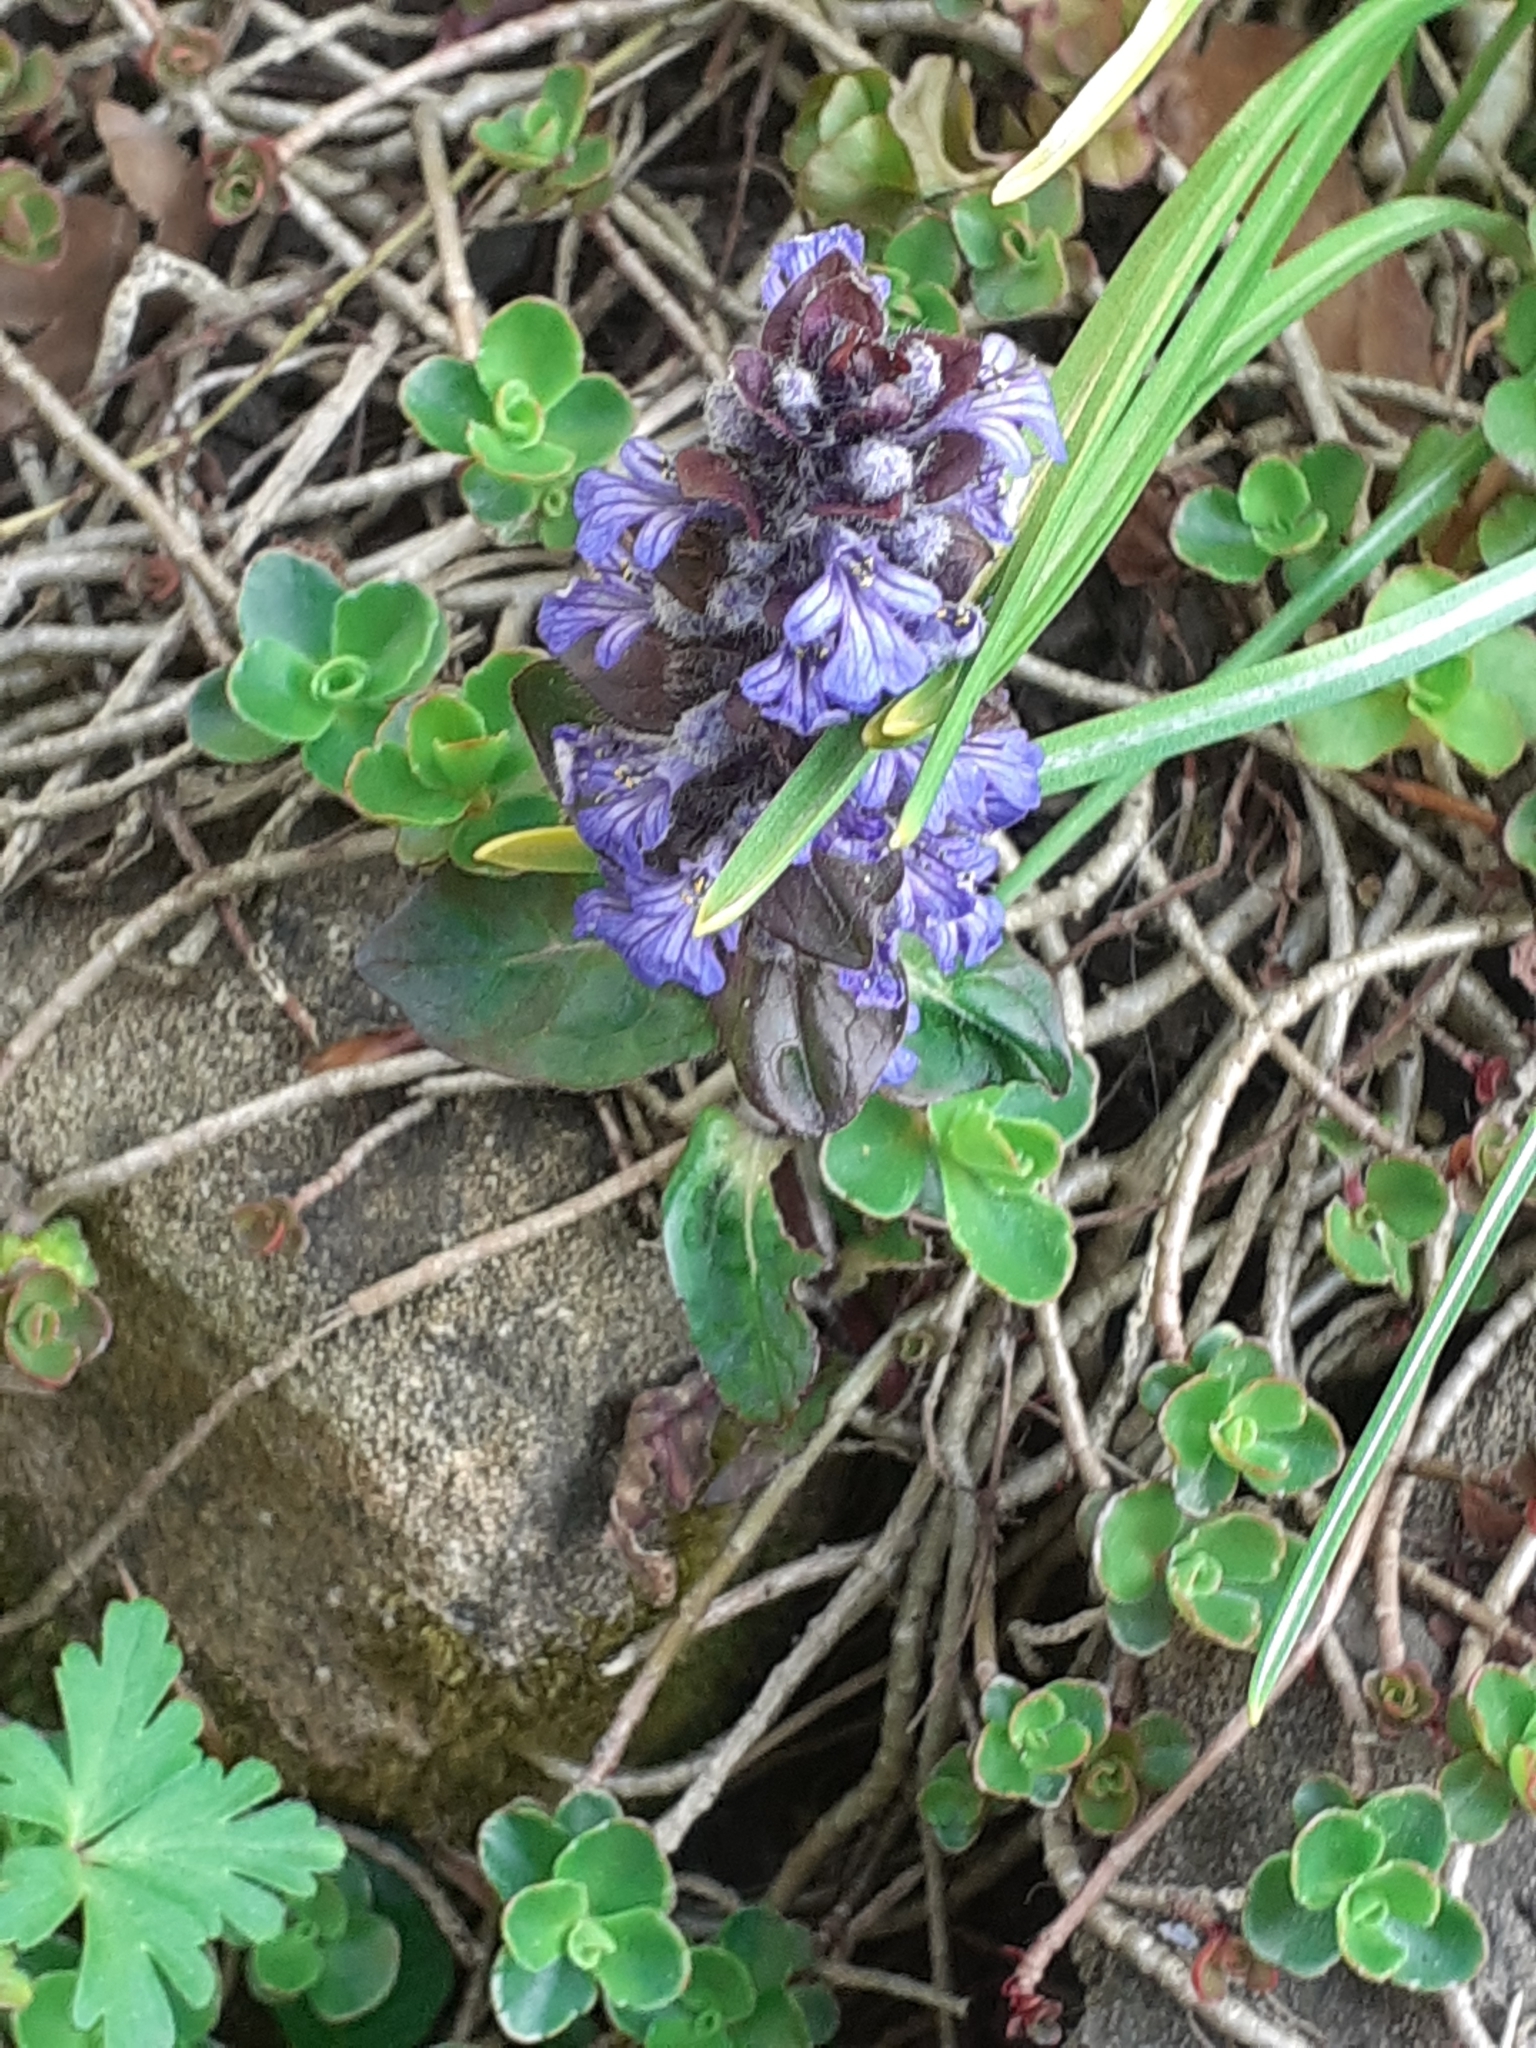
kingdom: Plantae
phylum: Tracheophyta
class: Magnoliopsida
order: Lamiales
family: Lamiaceae
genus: Ajuga
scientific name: Ajuga reptans
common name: Bugle
